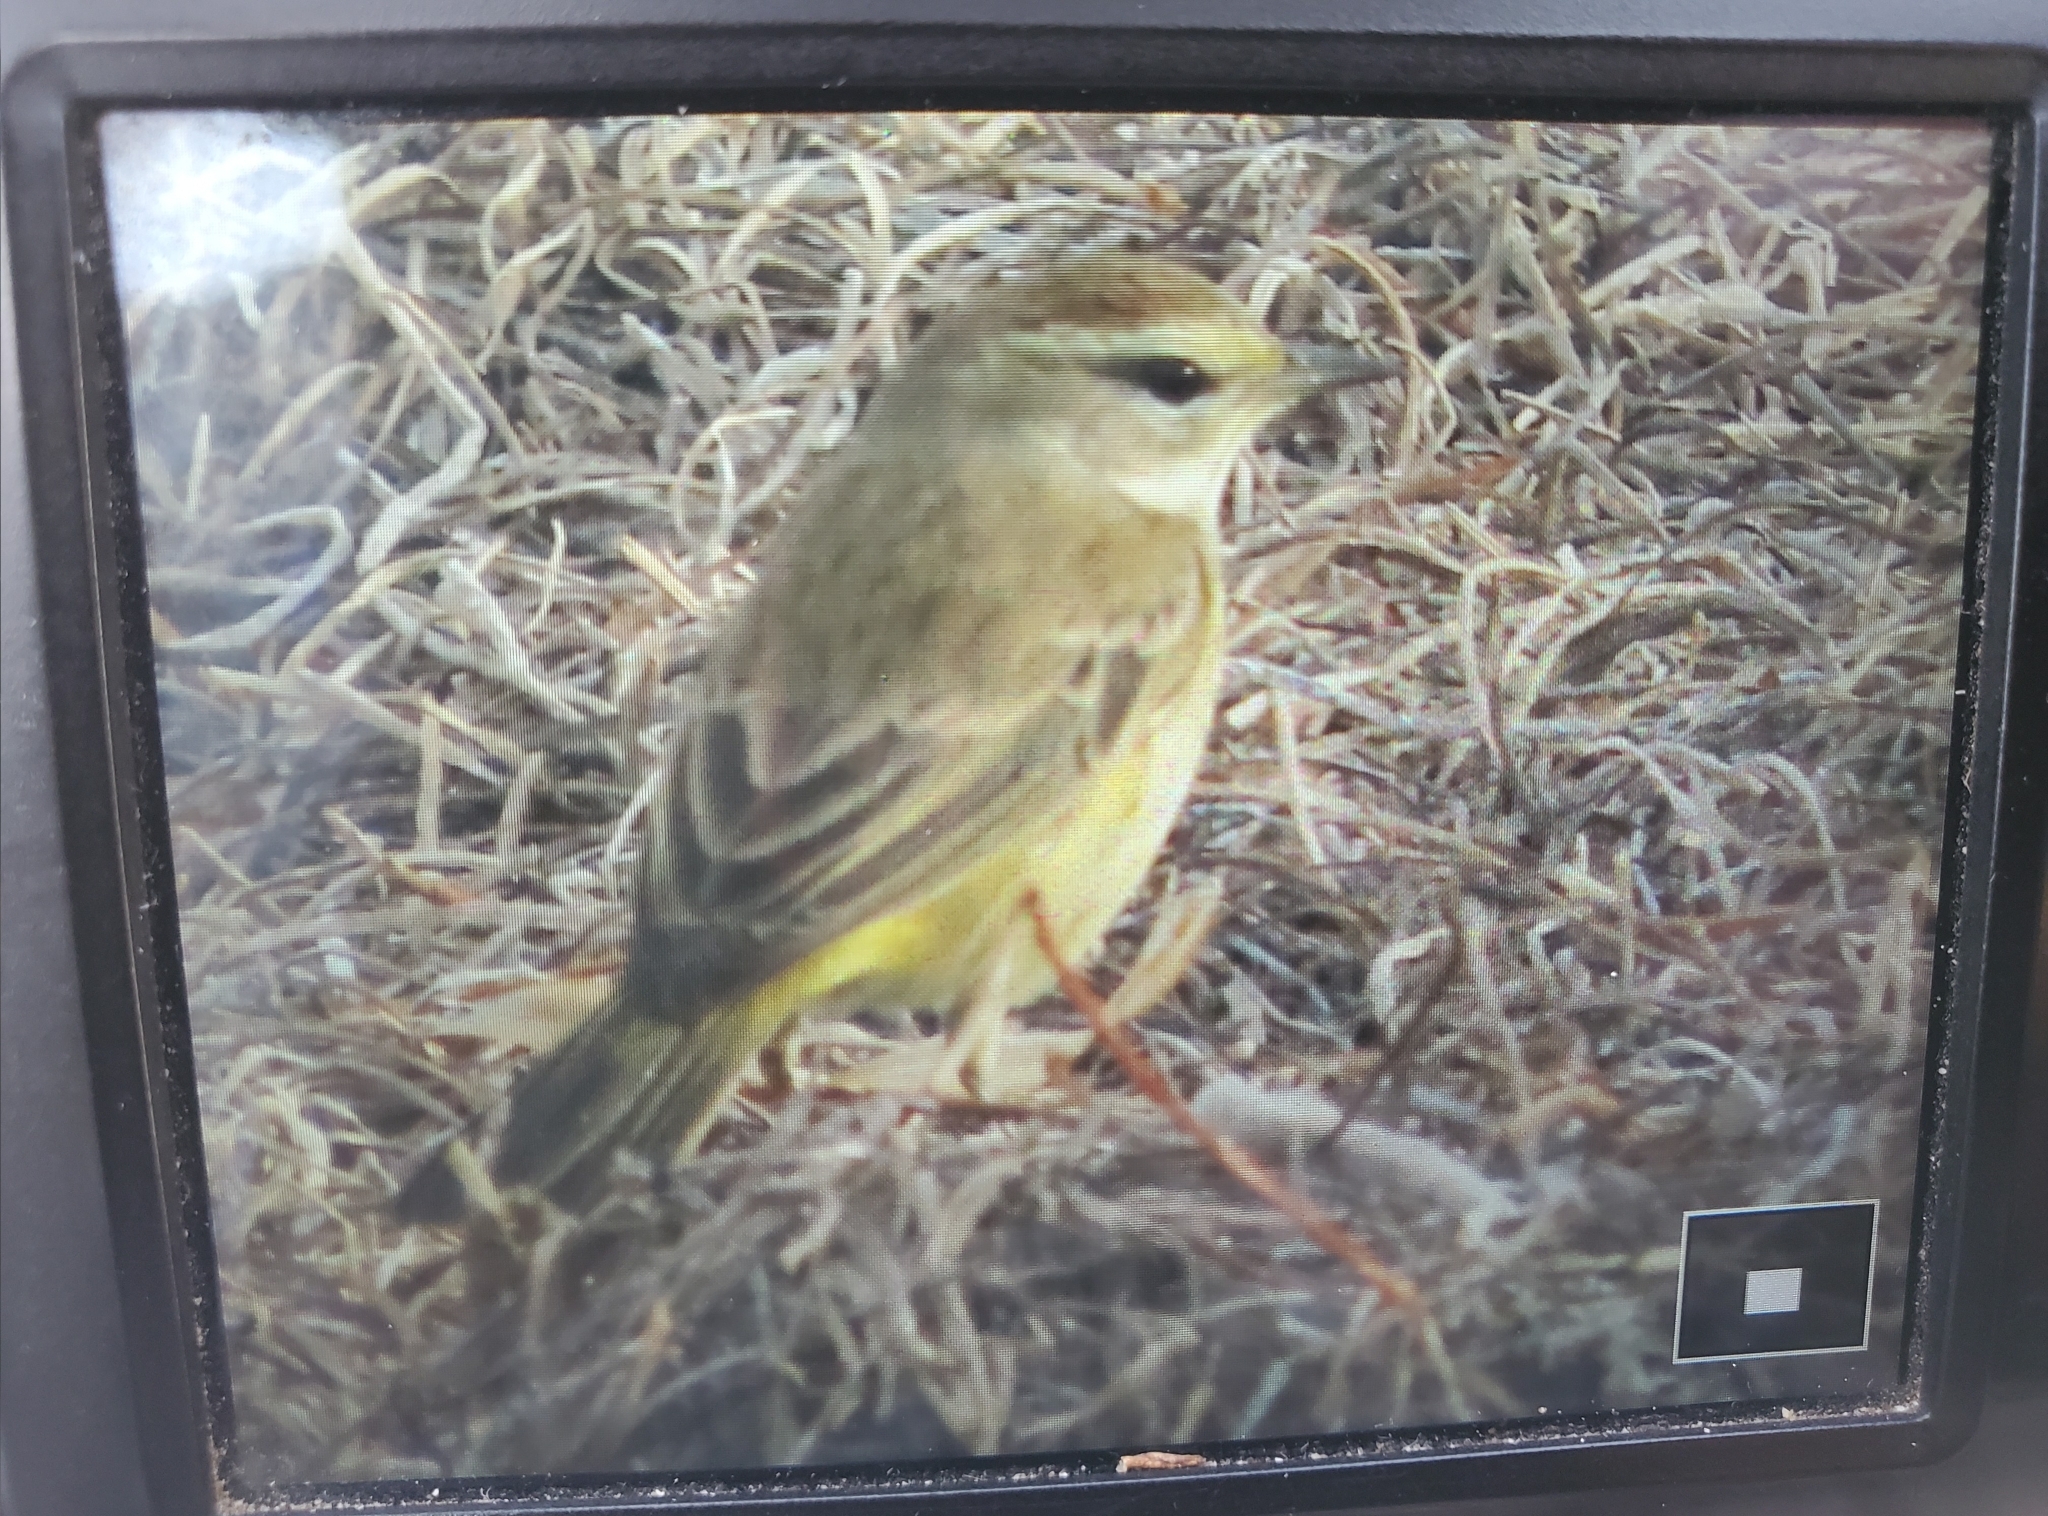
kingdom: Animalia
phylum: Chordata
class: Aves
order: Passeriformes
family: Parulidae
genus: Setophaga
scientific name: Setophaga palmarum
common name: Palm warbler
